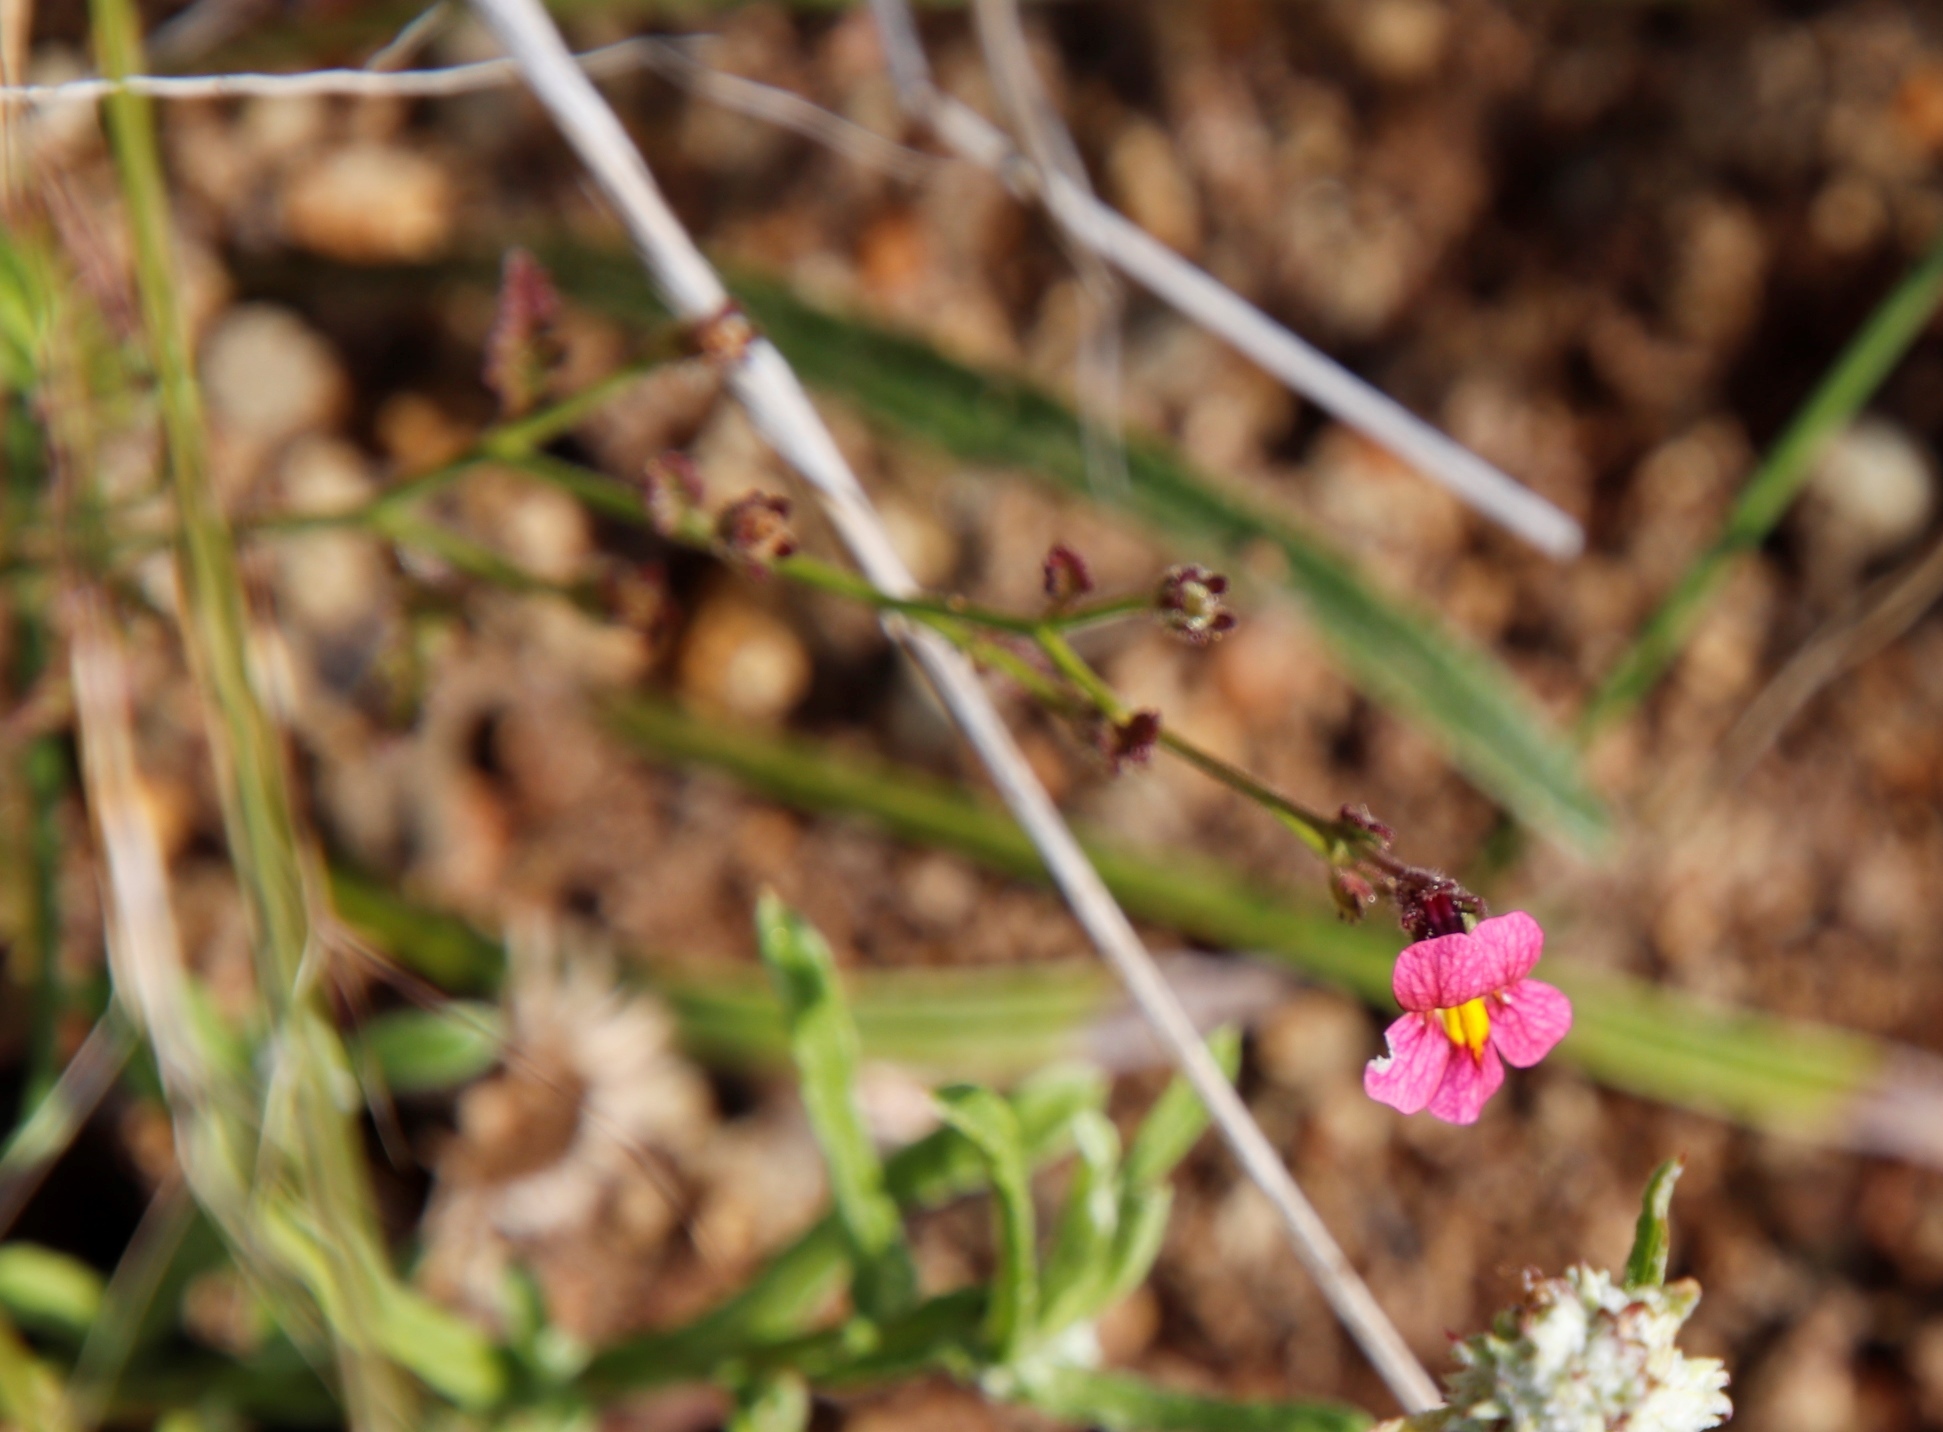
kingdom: Plantae
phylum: Tracheophyta
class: Magnoliopsida
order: Lamiales
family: Scrophulariaceae
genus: Jamesbrittenia
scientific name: Jamesbrittenia breviflora
